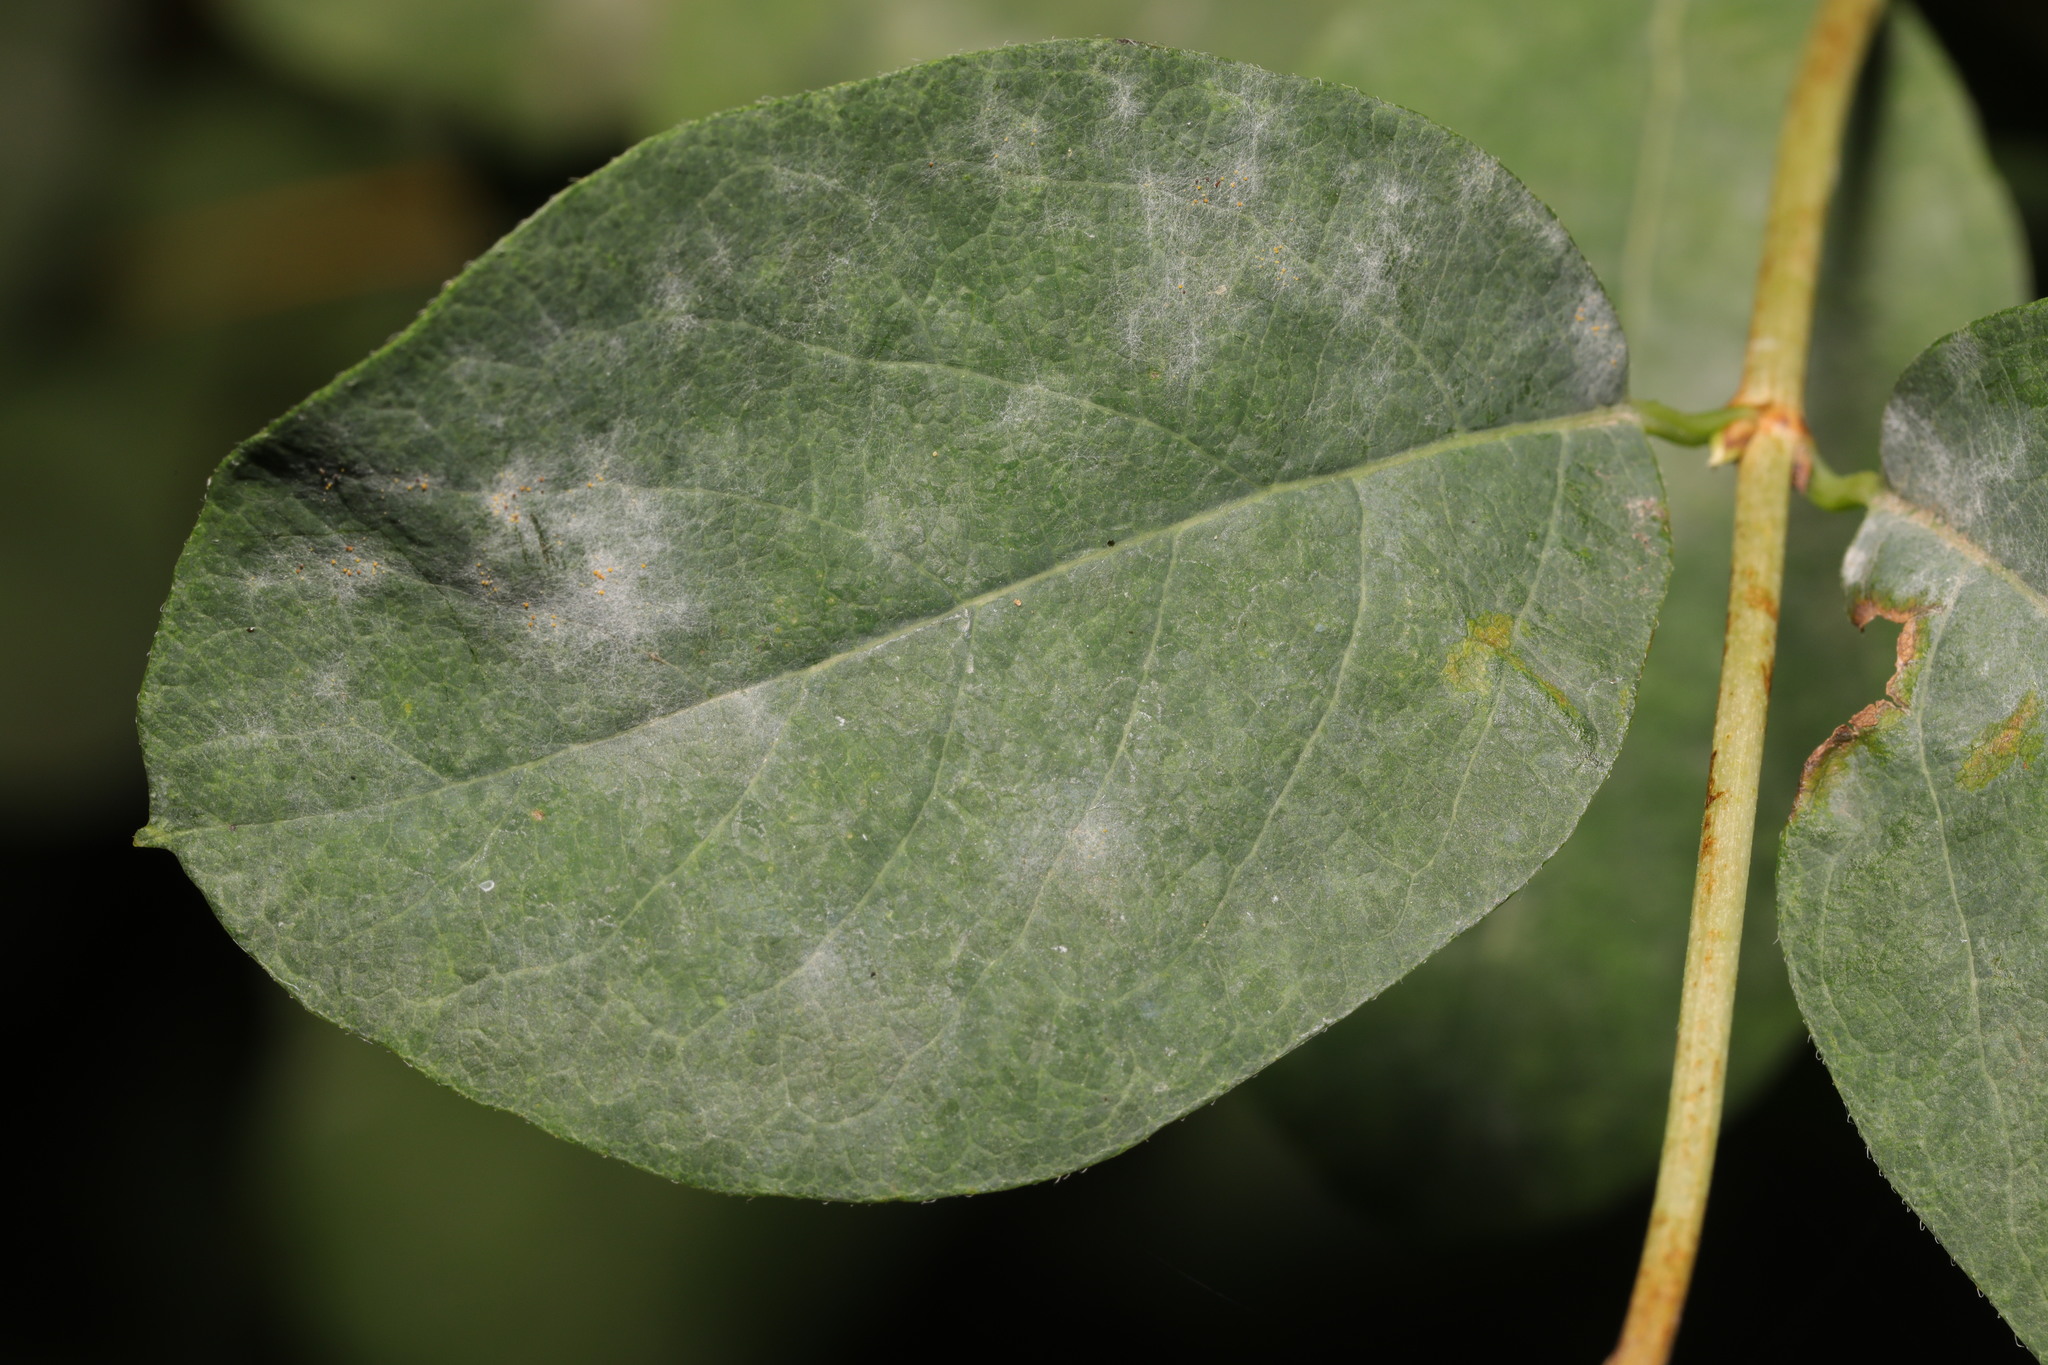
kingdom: Fungi
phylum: Ascomycota
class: Leotiomycetes
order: Helotiales
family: Erysiphaceae
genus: Erysiphe
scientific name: Erysiphe symphoricarpi
